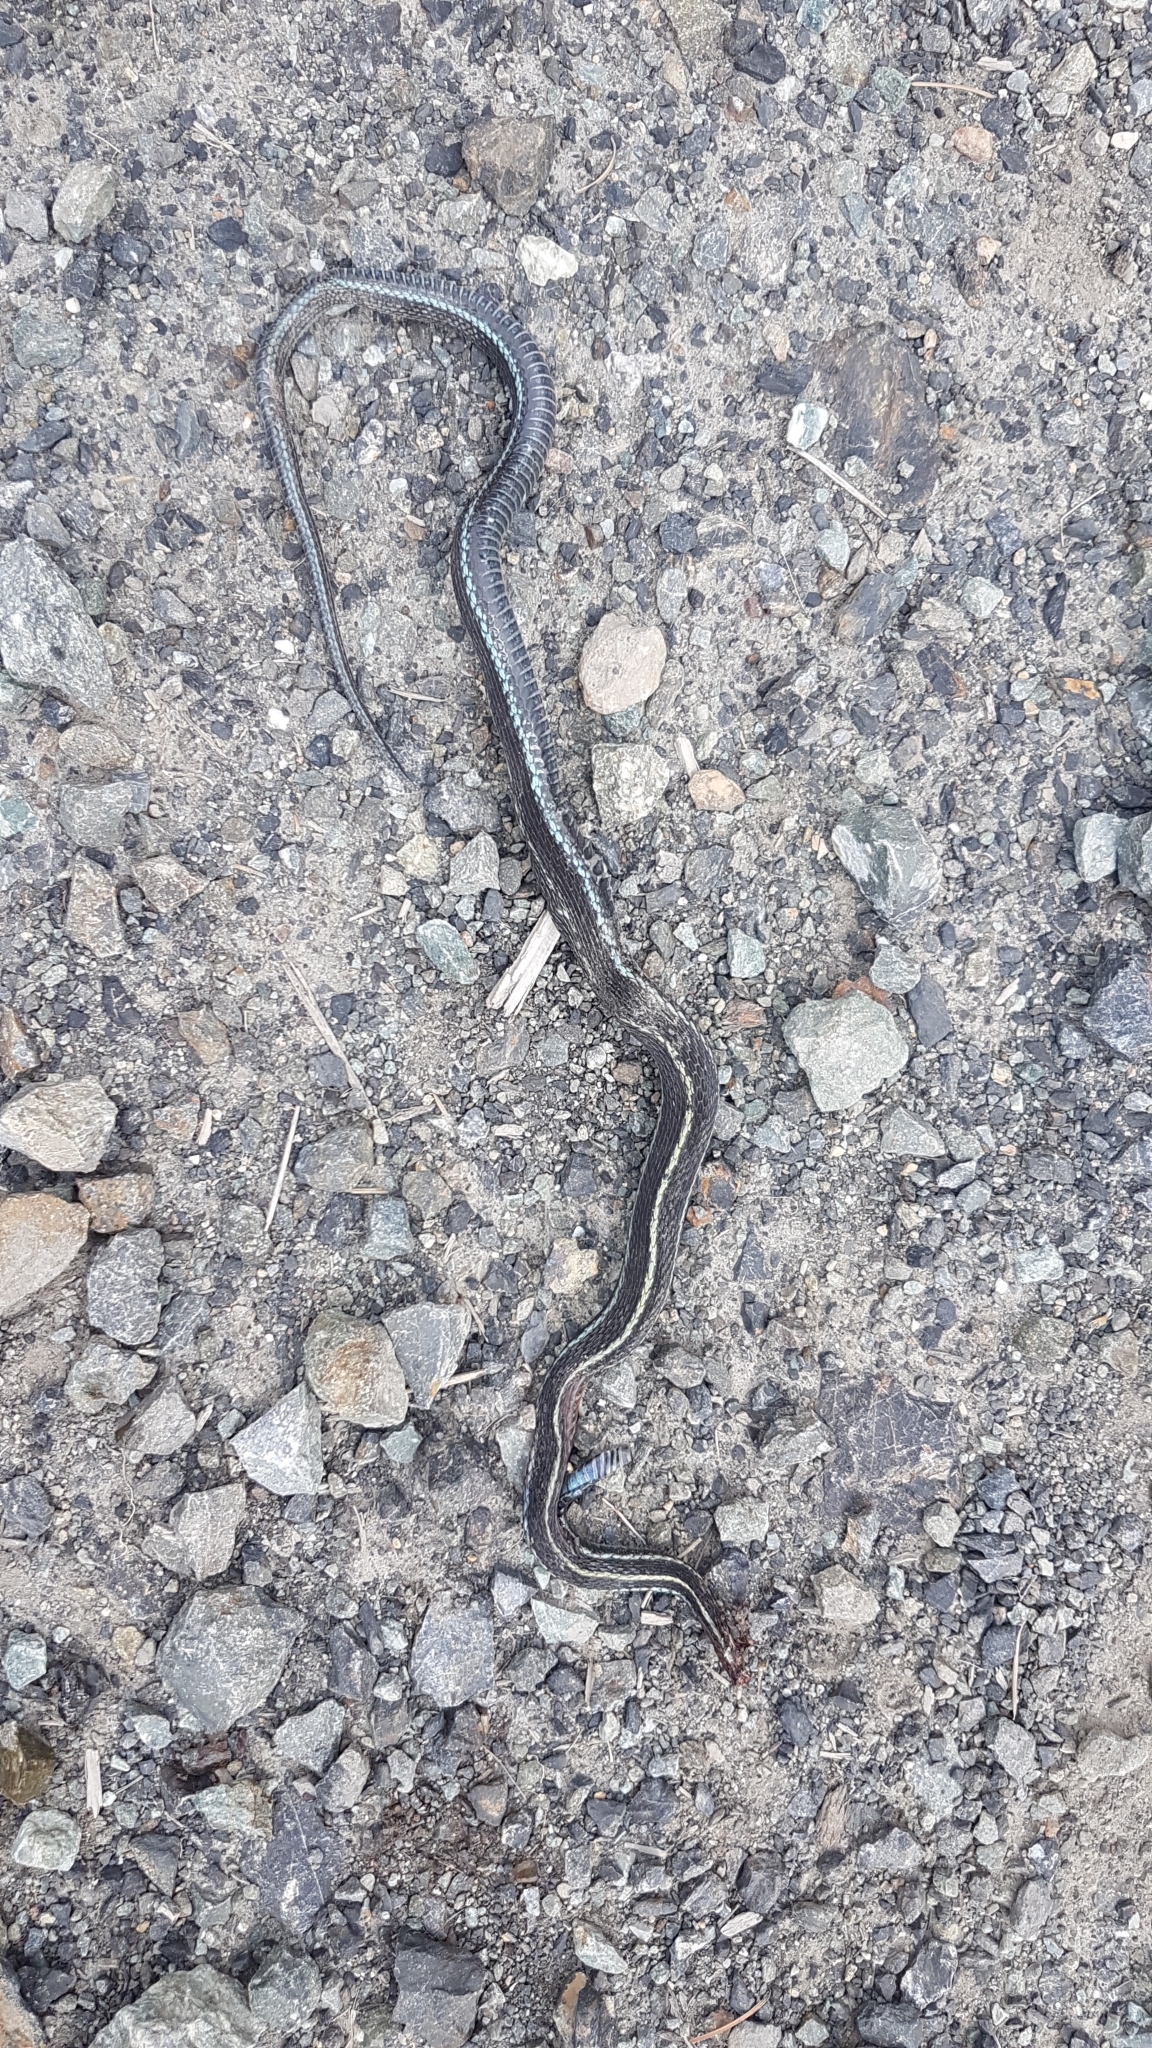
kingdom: Animalia
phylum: Chordata
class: Squamata
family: Colubridae
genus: Thamnophis
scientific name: Thamnophis ordinoides
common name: Northwestern garter snake
